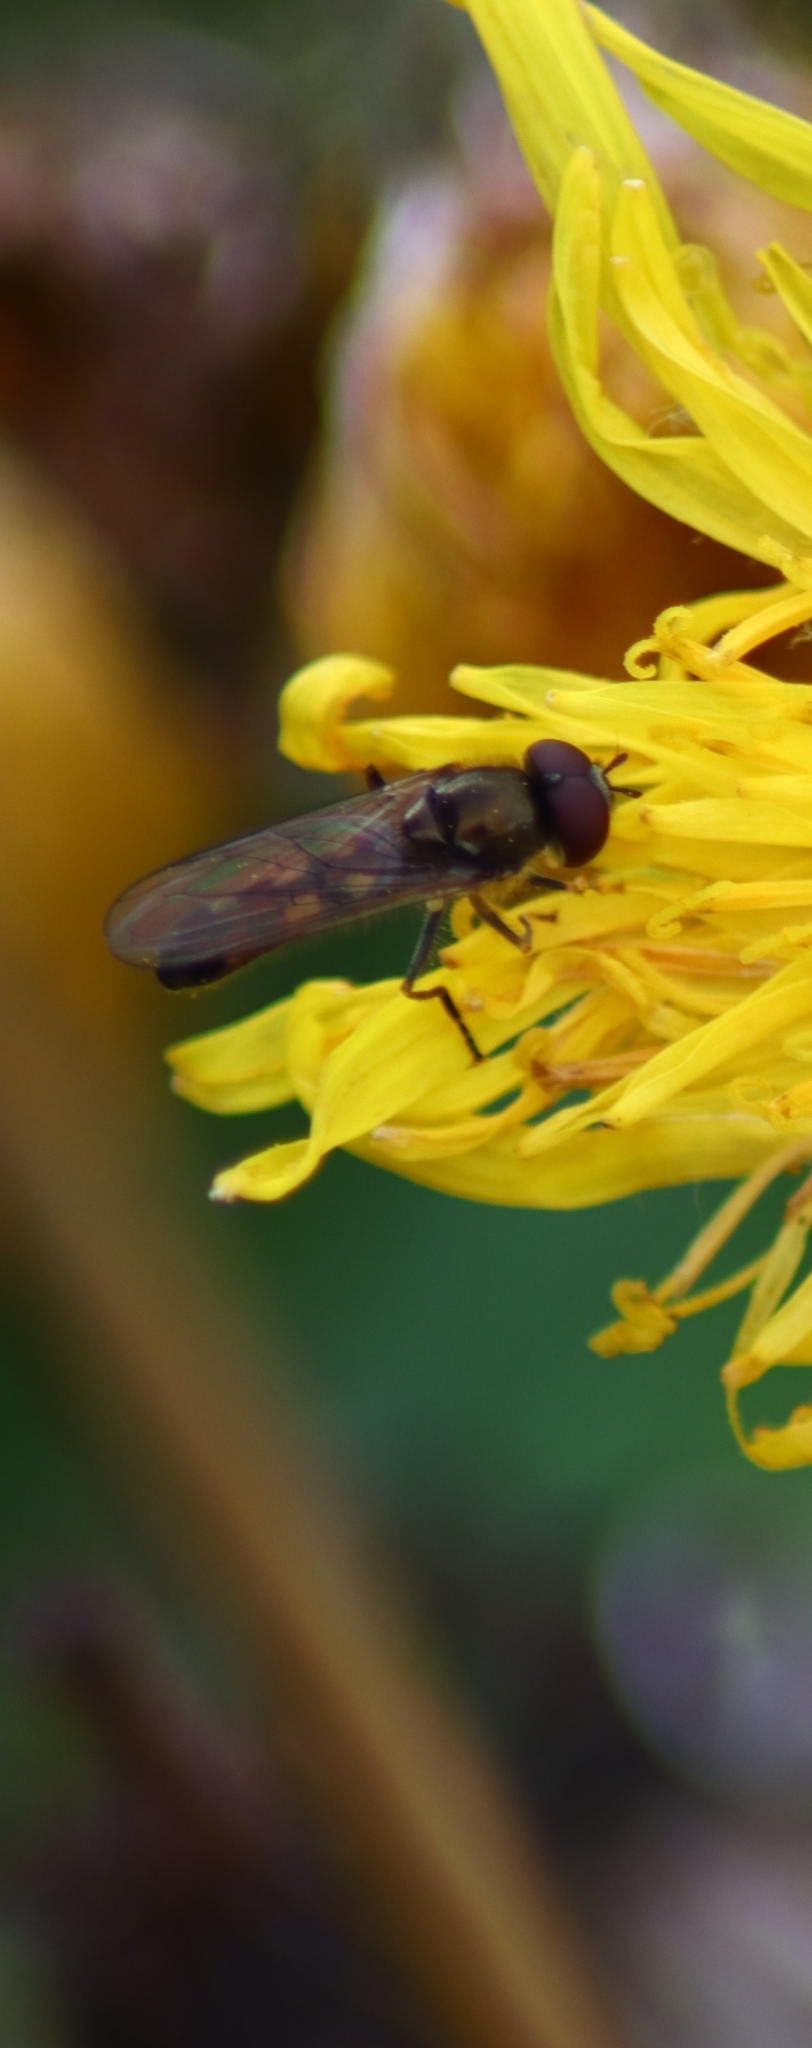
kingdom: Animalia
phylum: Arthropoda
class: Insecta
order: Diptera
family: Syrphidae
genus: Melanostoma
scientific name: Melanostoma scalare
